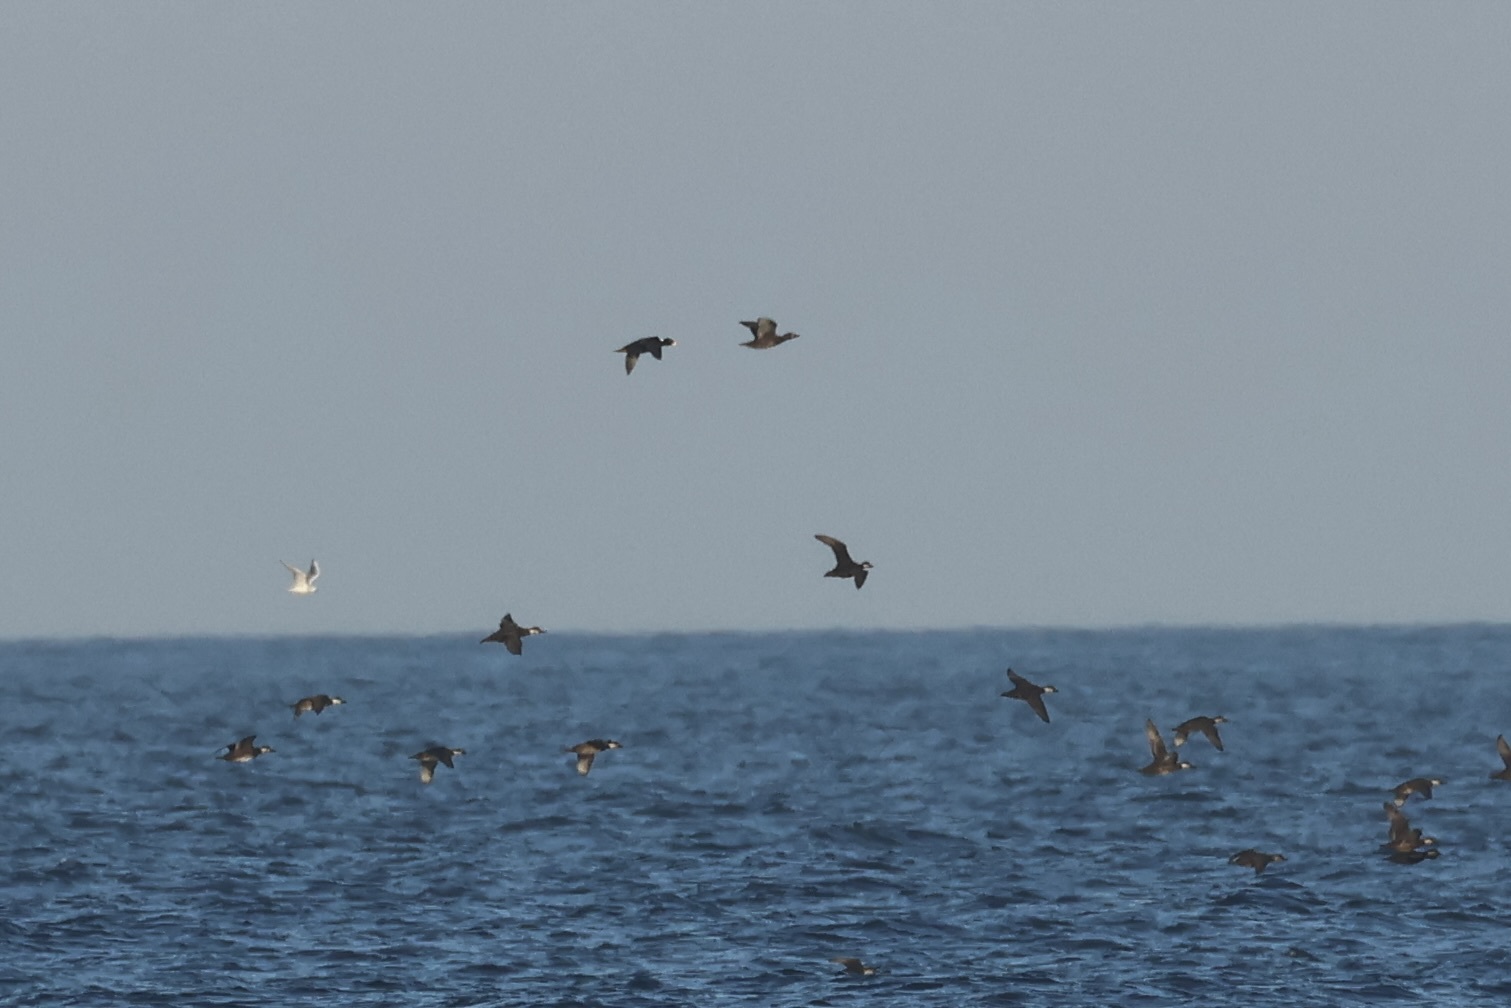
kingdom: Animalia
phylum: Chordata
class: Aves
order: Anseriformes
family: Anatidae
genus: Melanitta
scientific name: Melanitta perspicillata
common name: Surf scoter
